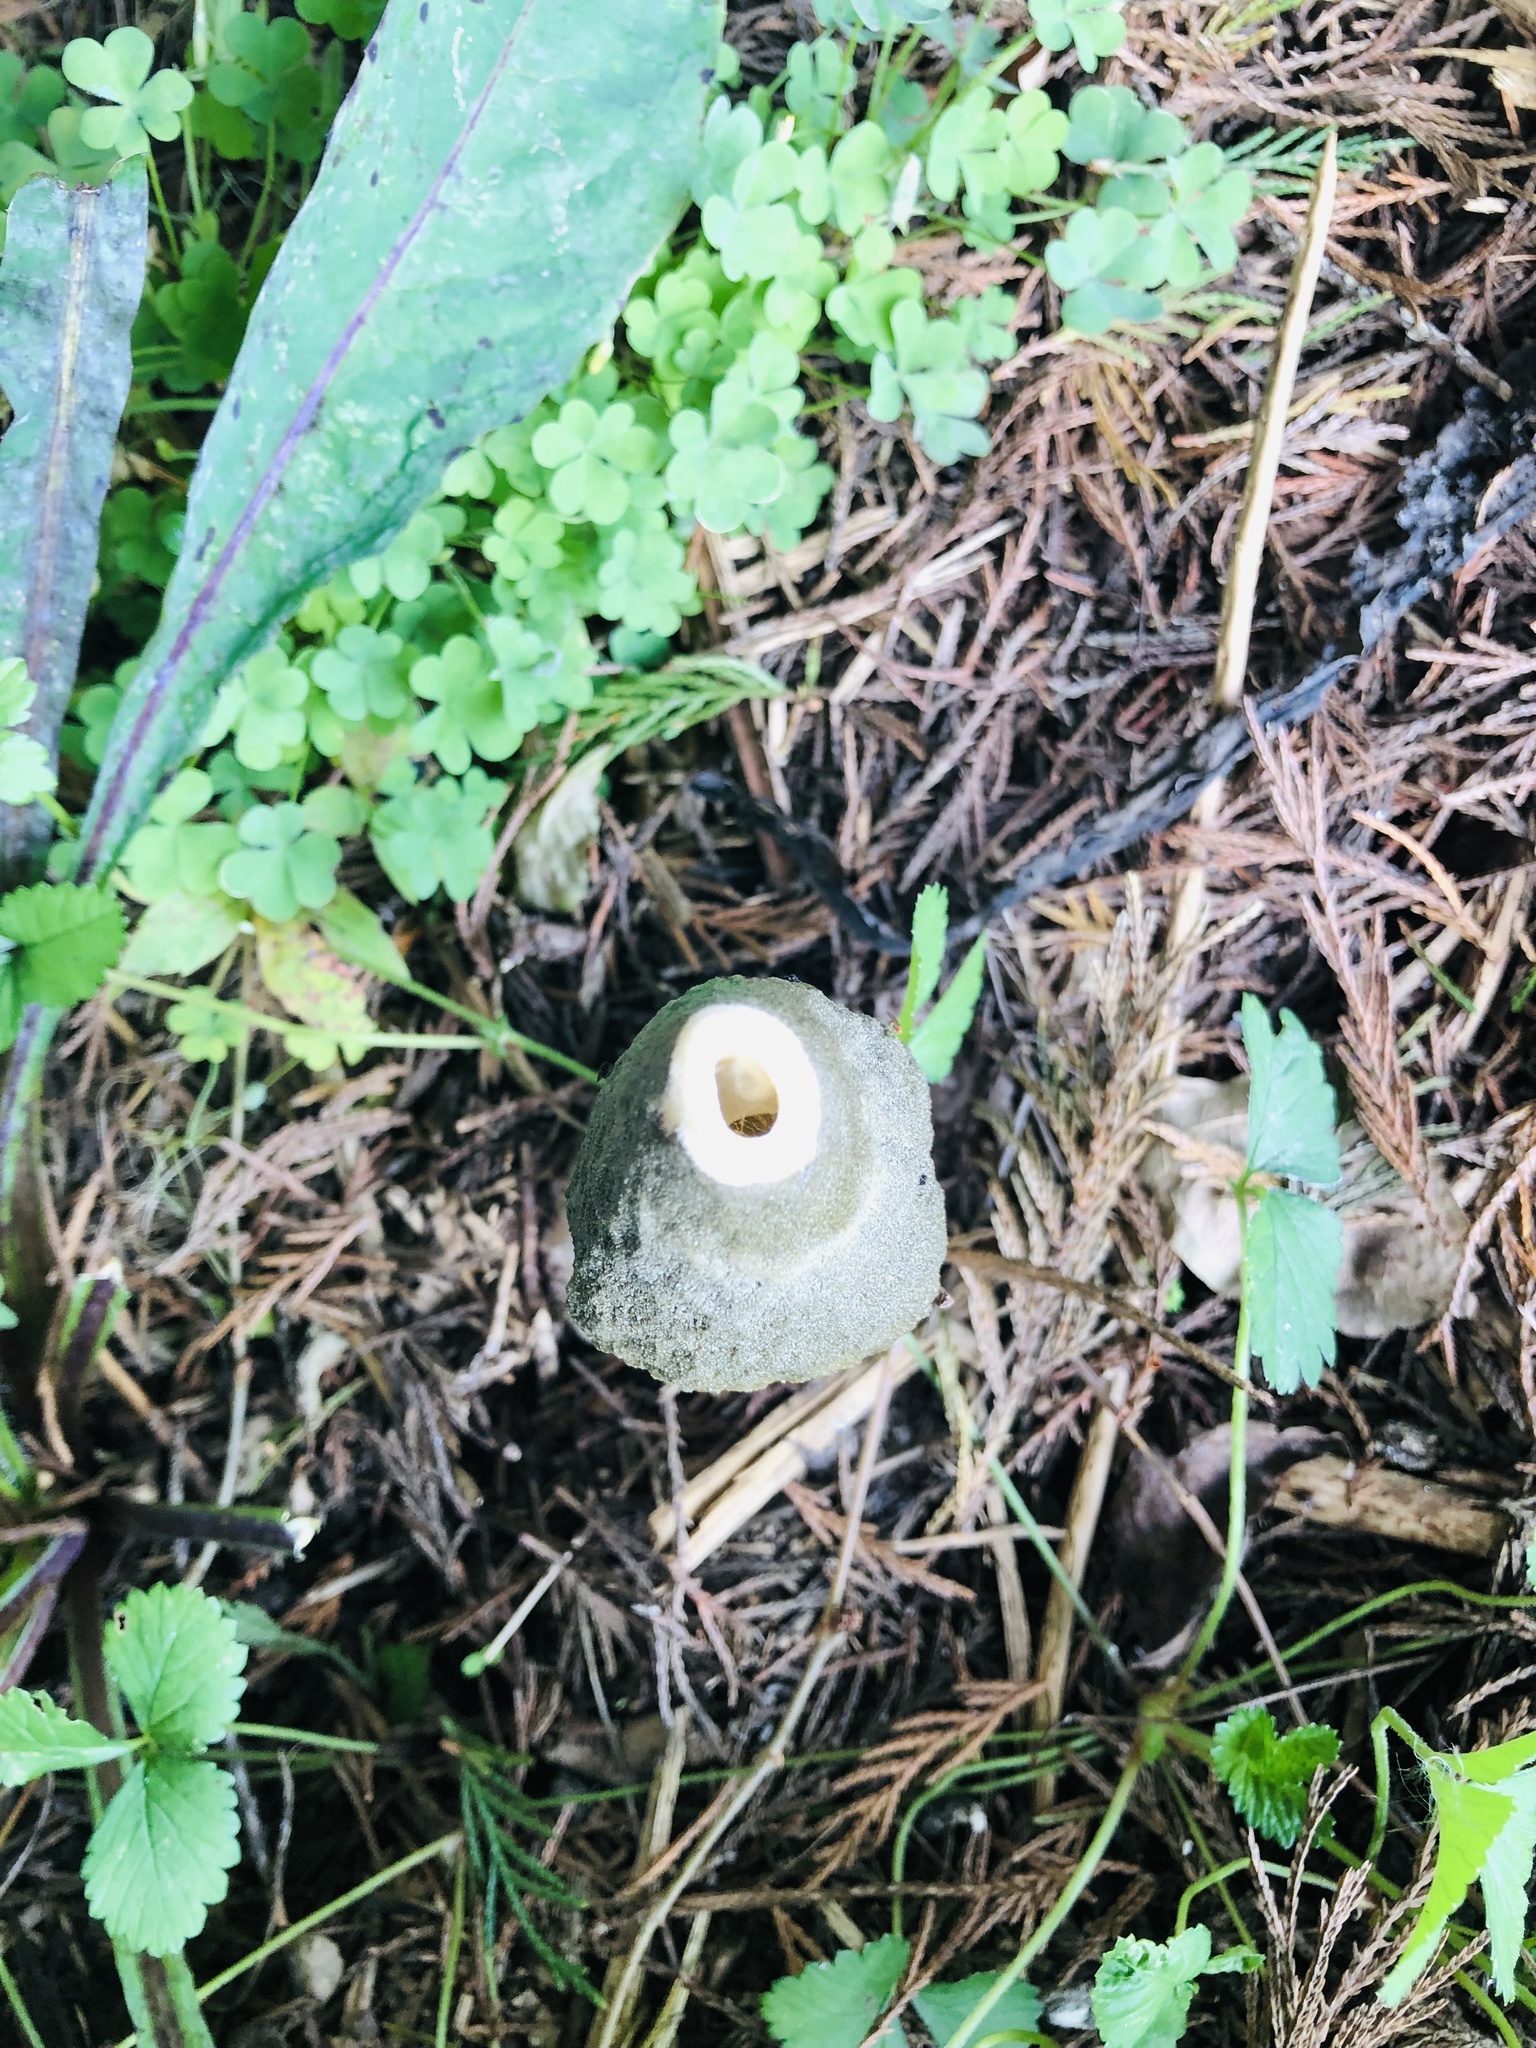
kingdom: Fungi
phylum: Basidiomycota
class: Agaricomycetes
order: Phallales
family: Phallaceae
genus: Phallus
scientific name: Phallus ravenelii
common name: Ravenel's stinkhorn
